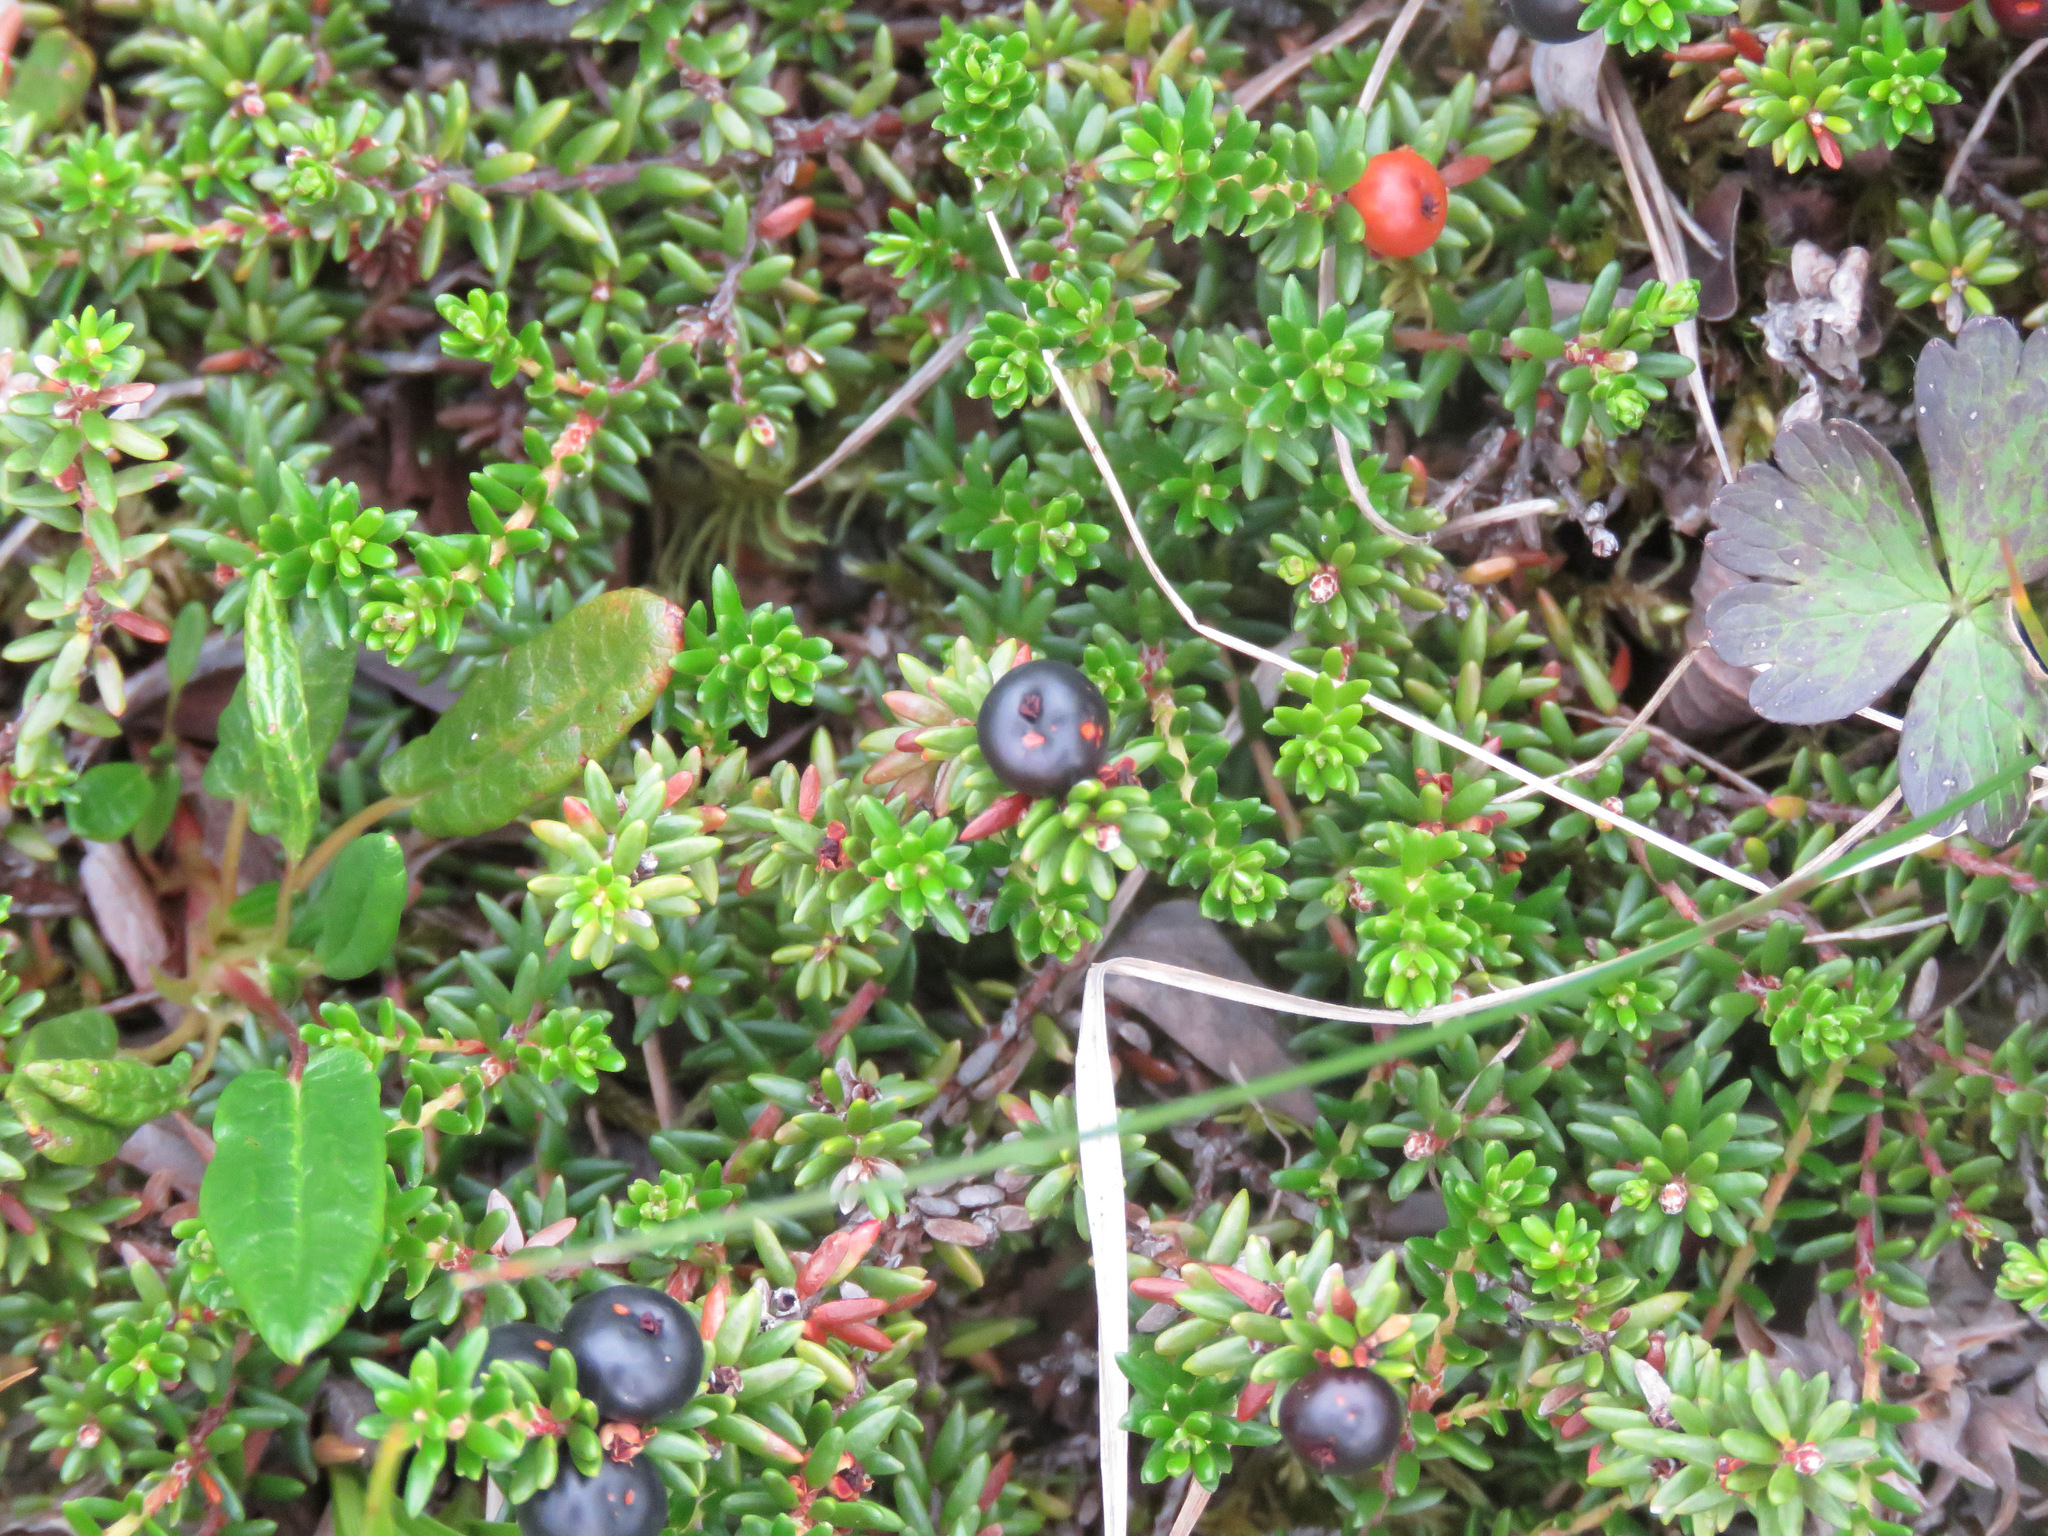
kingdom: Plantae
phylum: Tracheophyta
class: Magnoliopsida
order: Ericales
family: Ericaceae
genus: Empetrum
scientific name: Empetrum nigrum
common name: Black crowberry
